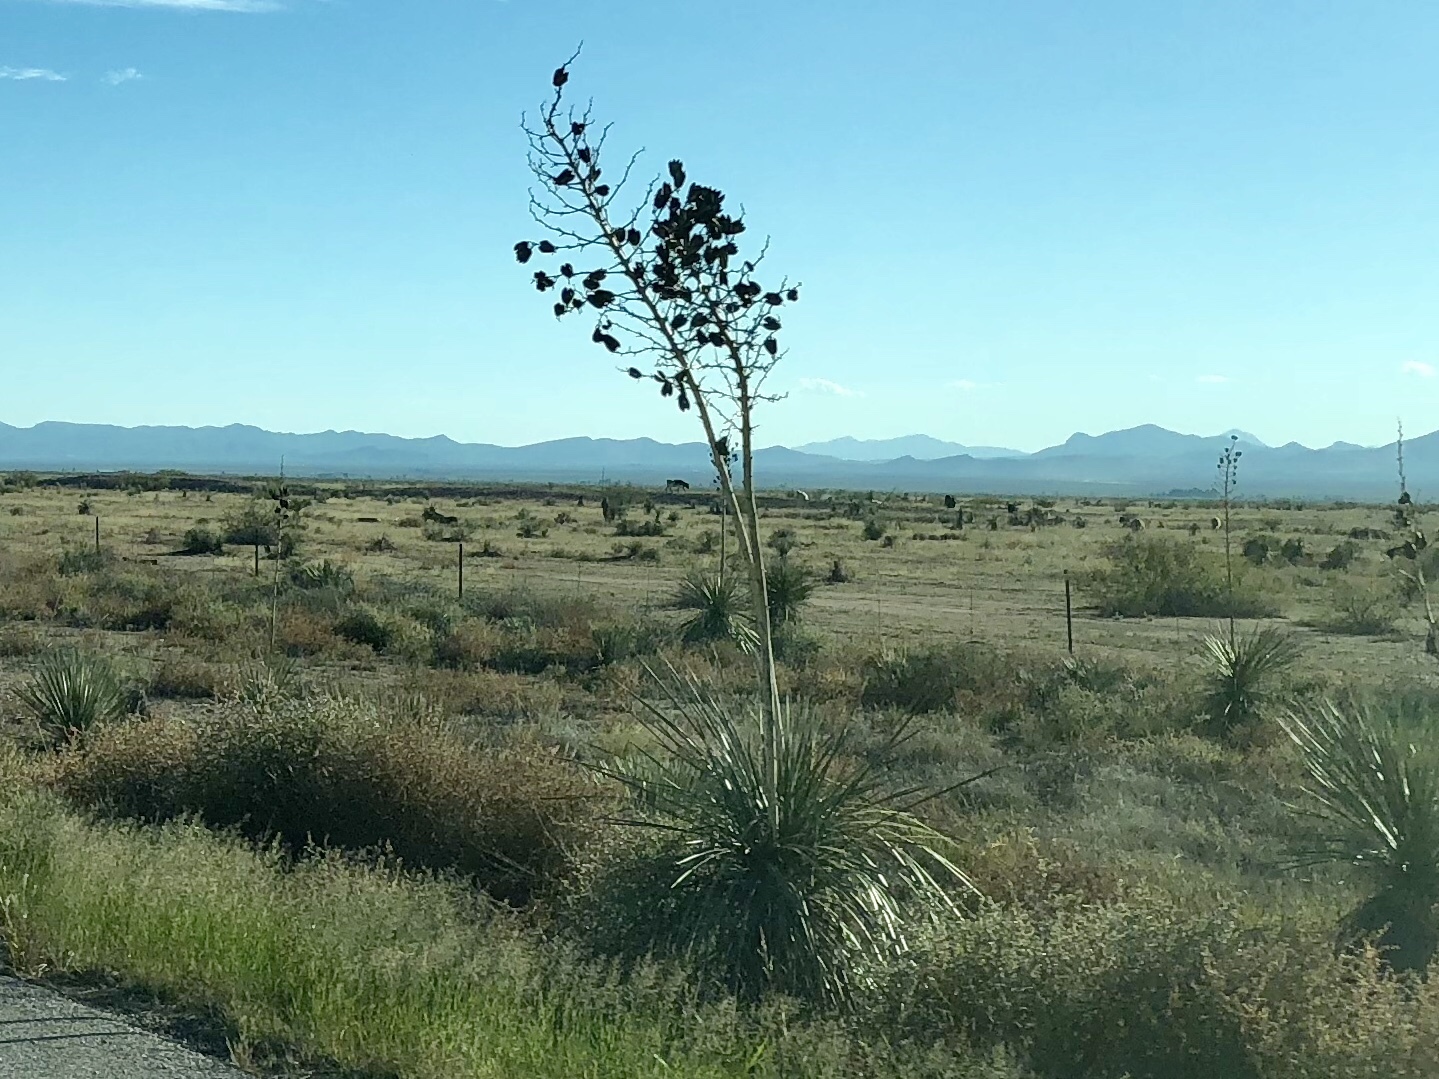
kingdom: Plantae
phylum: Tracheophyta
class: Liliopsida
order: Asparagales
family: Asparagaceae
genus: Yucca
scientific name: Yucca elata
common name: Palmella
